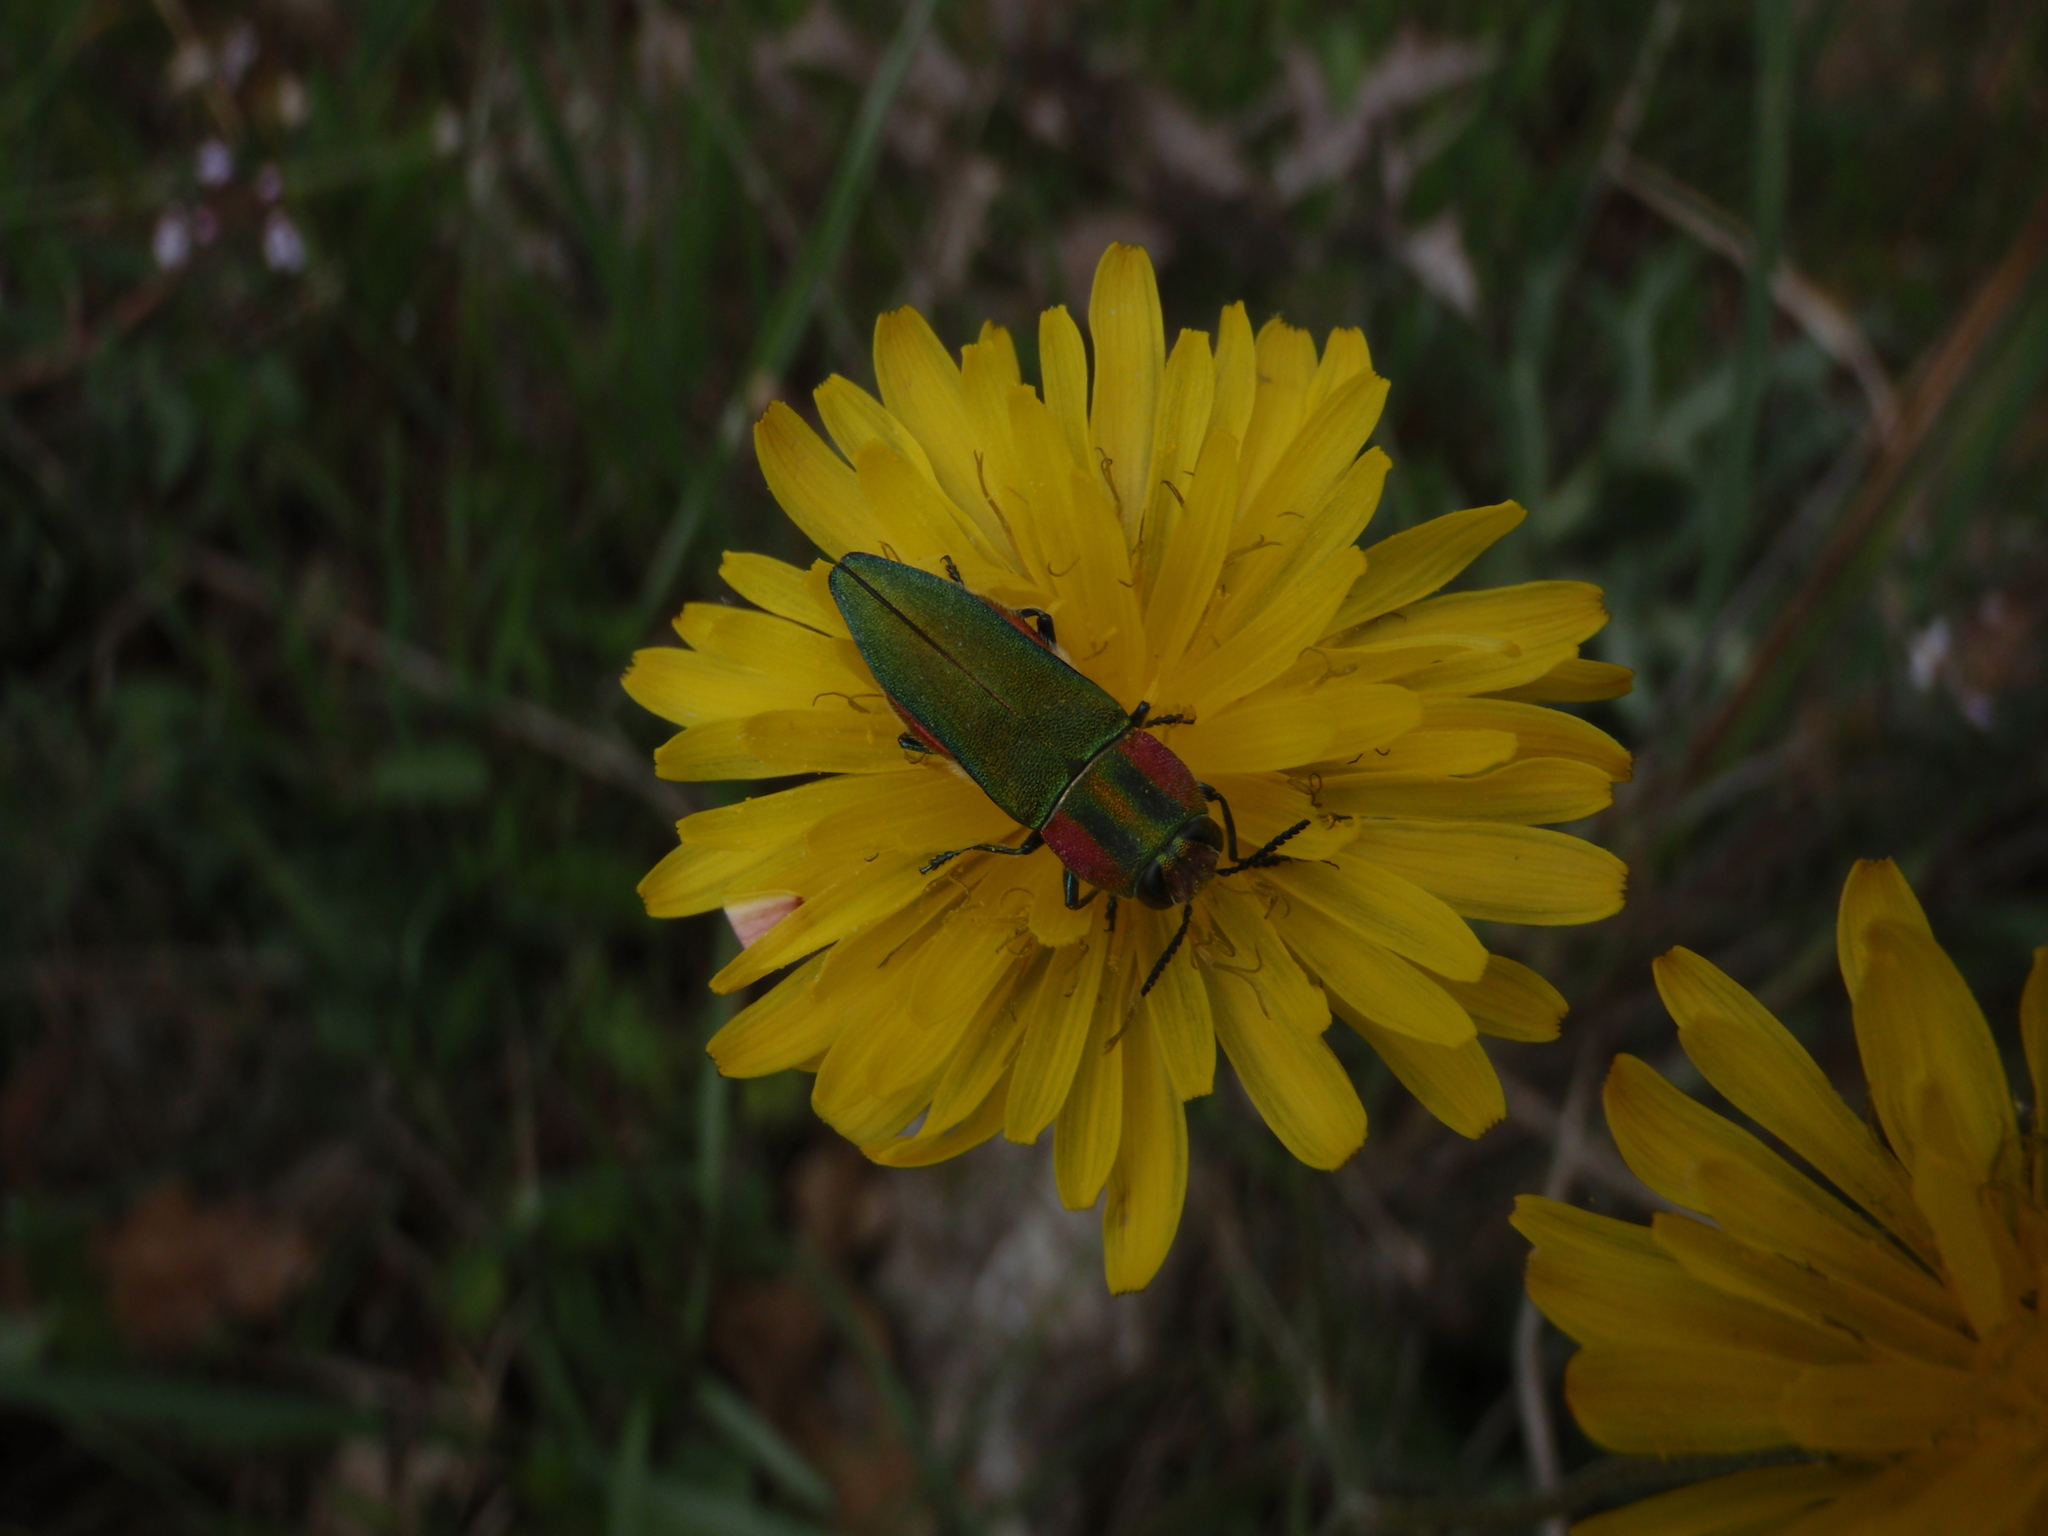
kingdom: Animalia
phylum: Arthropoda
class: Insecta
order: Coleoptera
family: Buprestidae
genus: Anthaxia
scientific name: Anthaxia hungarica
